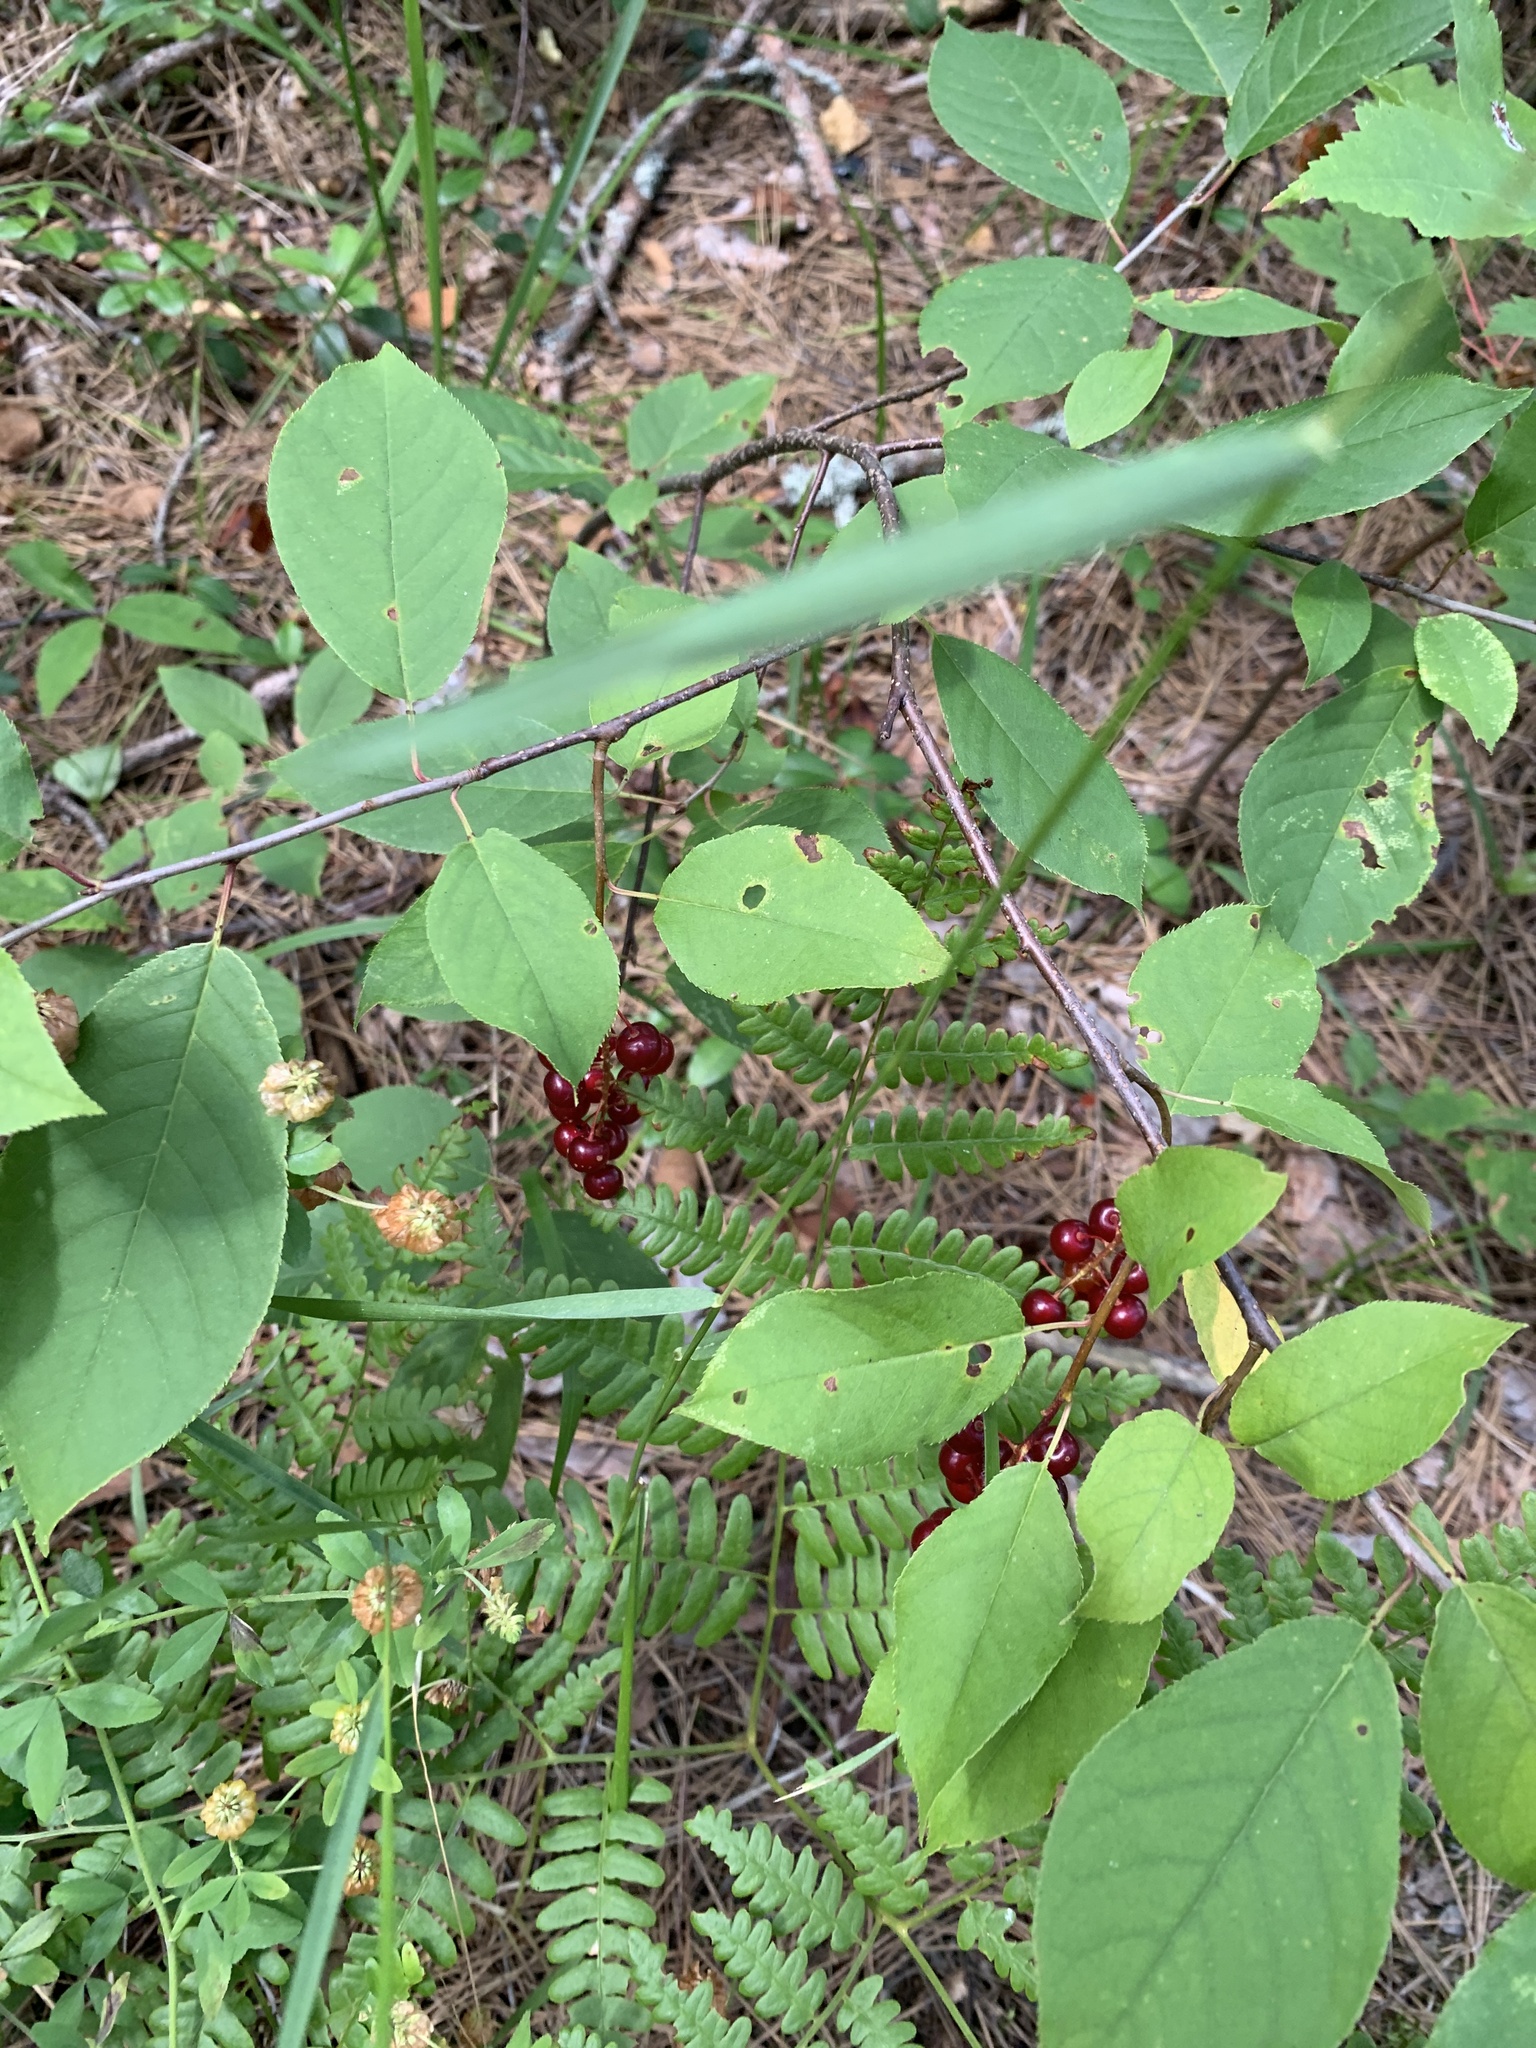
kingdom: Plantae
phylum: Tracheophyta
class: Magnoliopsida
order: Rosales
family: Rosaceae
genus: Prunus
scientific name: Prunus virginiana
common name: Chokecherry
